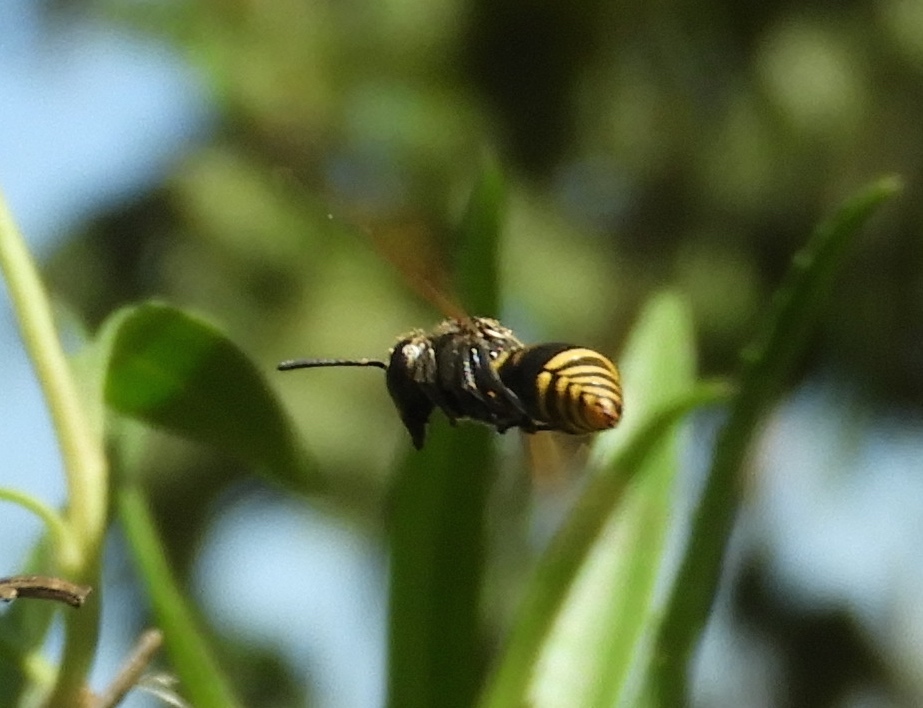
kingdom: Animalia
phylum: Arthropoda
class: Insecta
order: Hymenoptera
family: Vespidae
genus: Brachygastra
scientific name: Brachygastra mellifica
